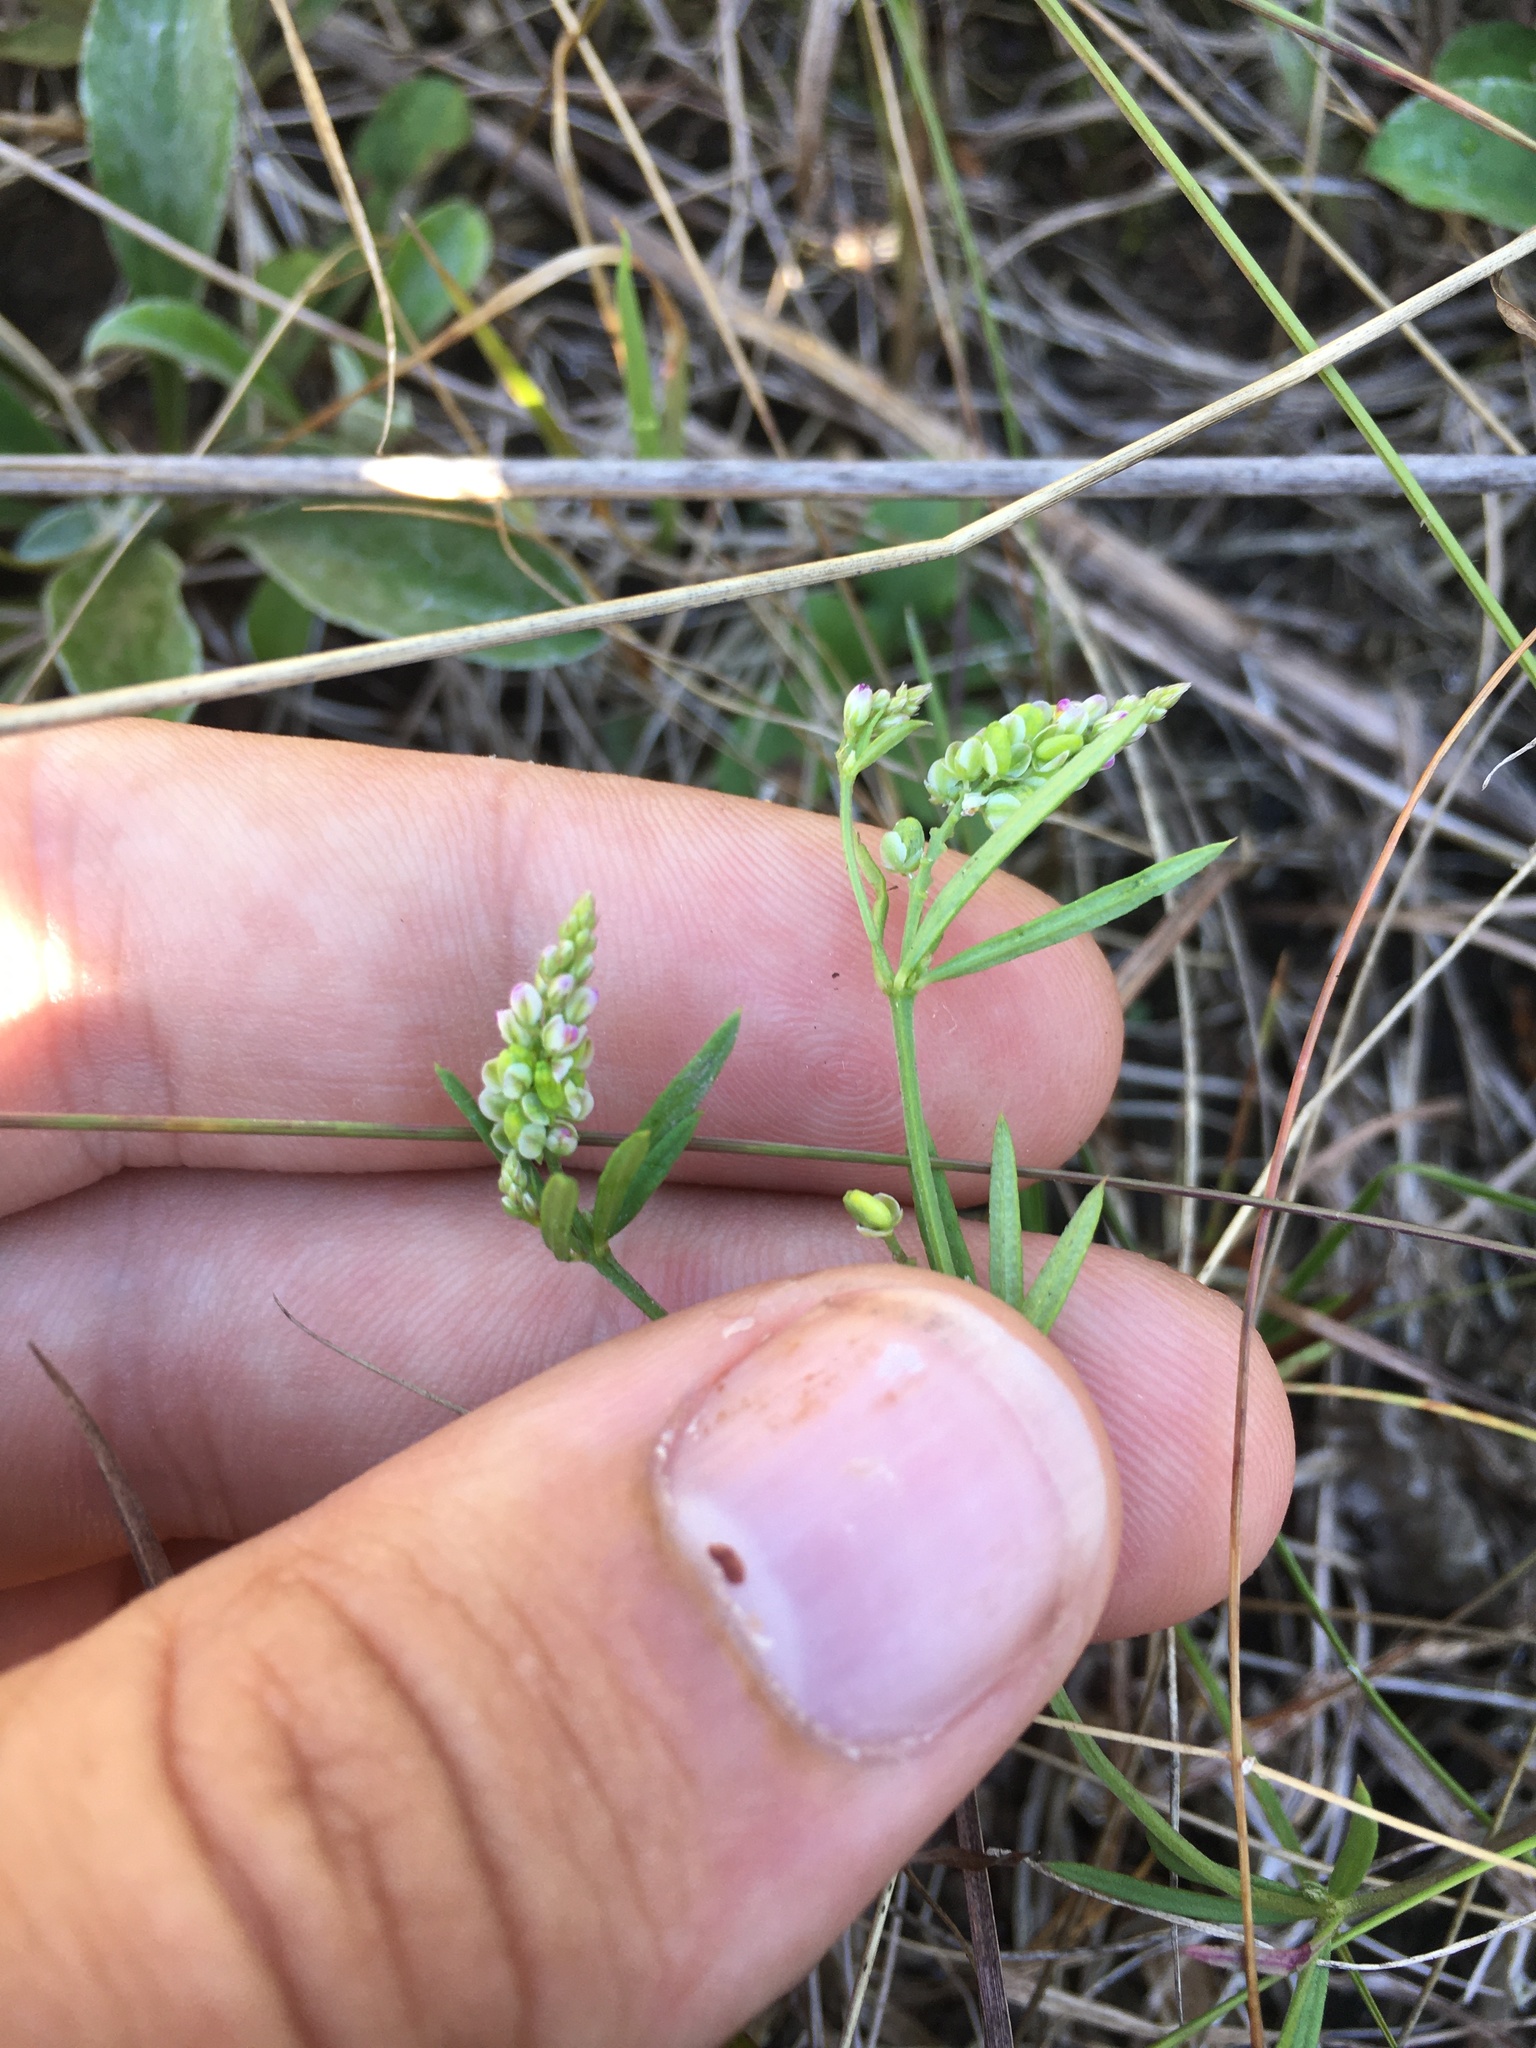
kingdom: Plantae
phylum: Tracheophyta
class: Magnoliopsida
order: Fabales
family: Polygalaceae
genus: Polygala
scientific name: Polygala verticillata
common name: Whorl milkwort
